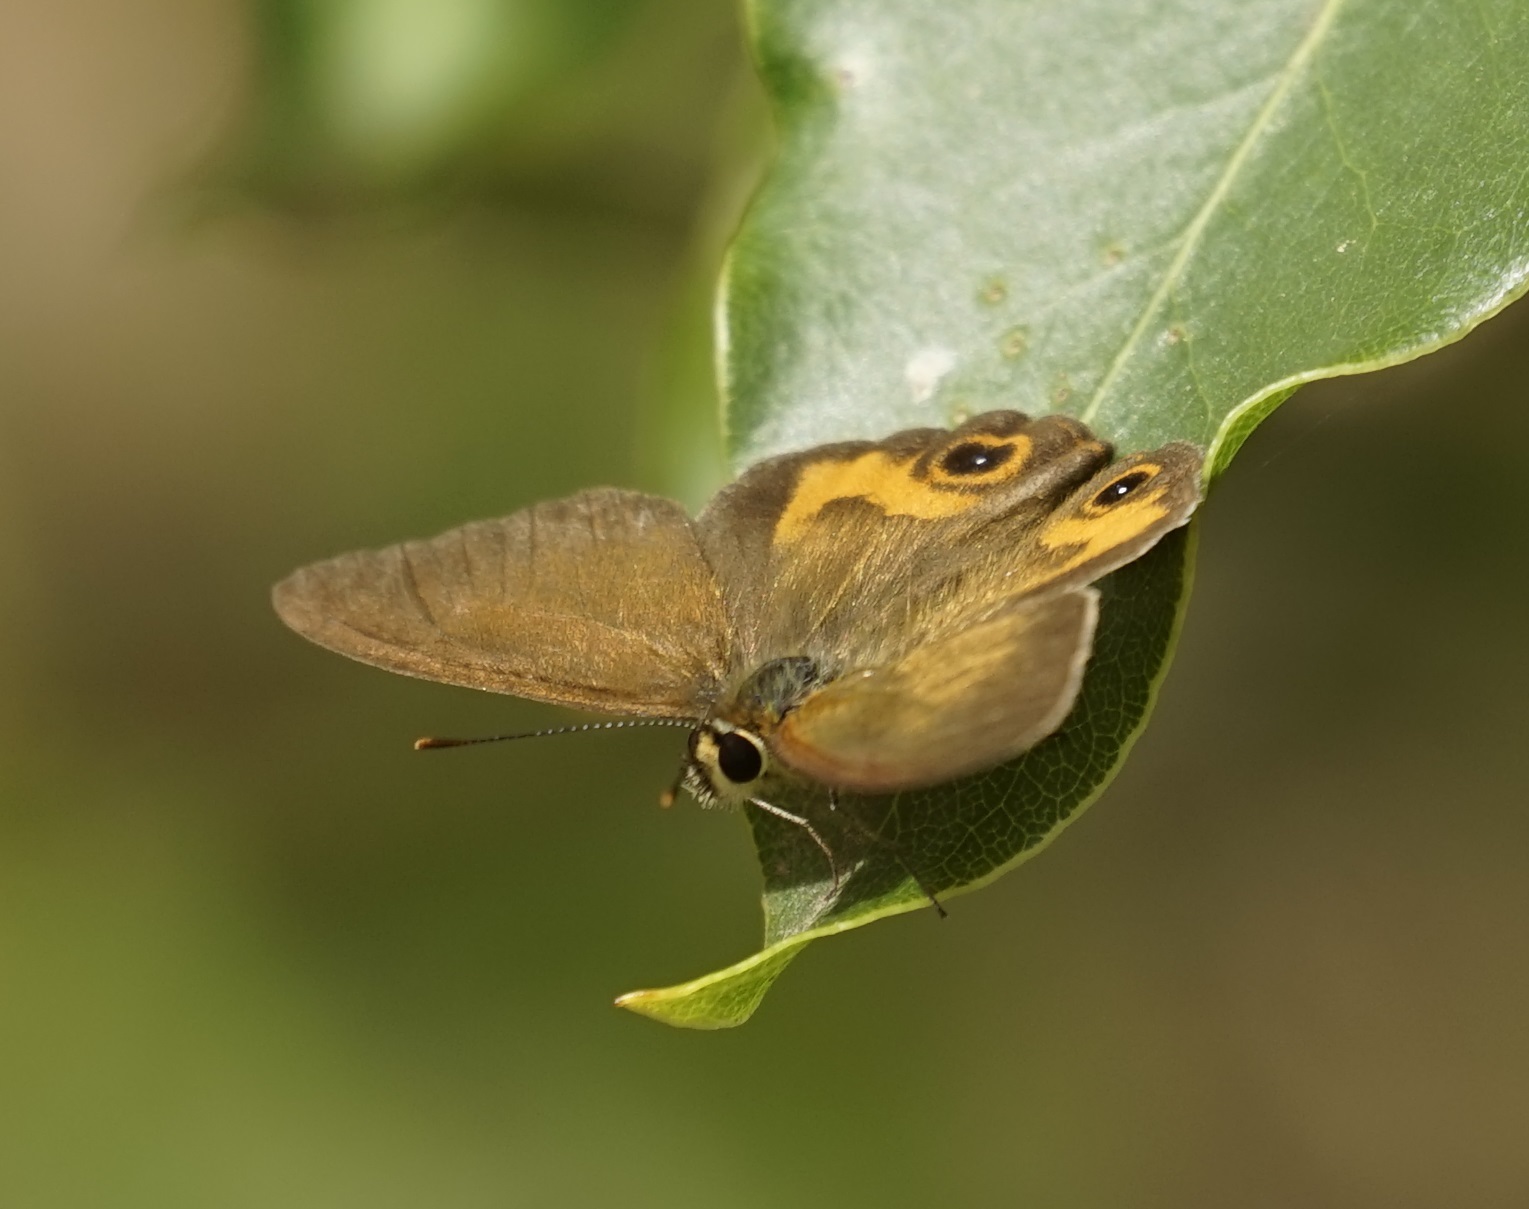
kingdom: Animalia
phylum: Arthropoda
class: Insecta
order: Lepidoptera
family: Nymphalidae
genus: Hypocysta
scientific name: Hypocysta metirius
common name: Brown ringlet
